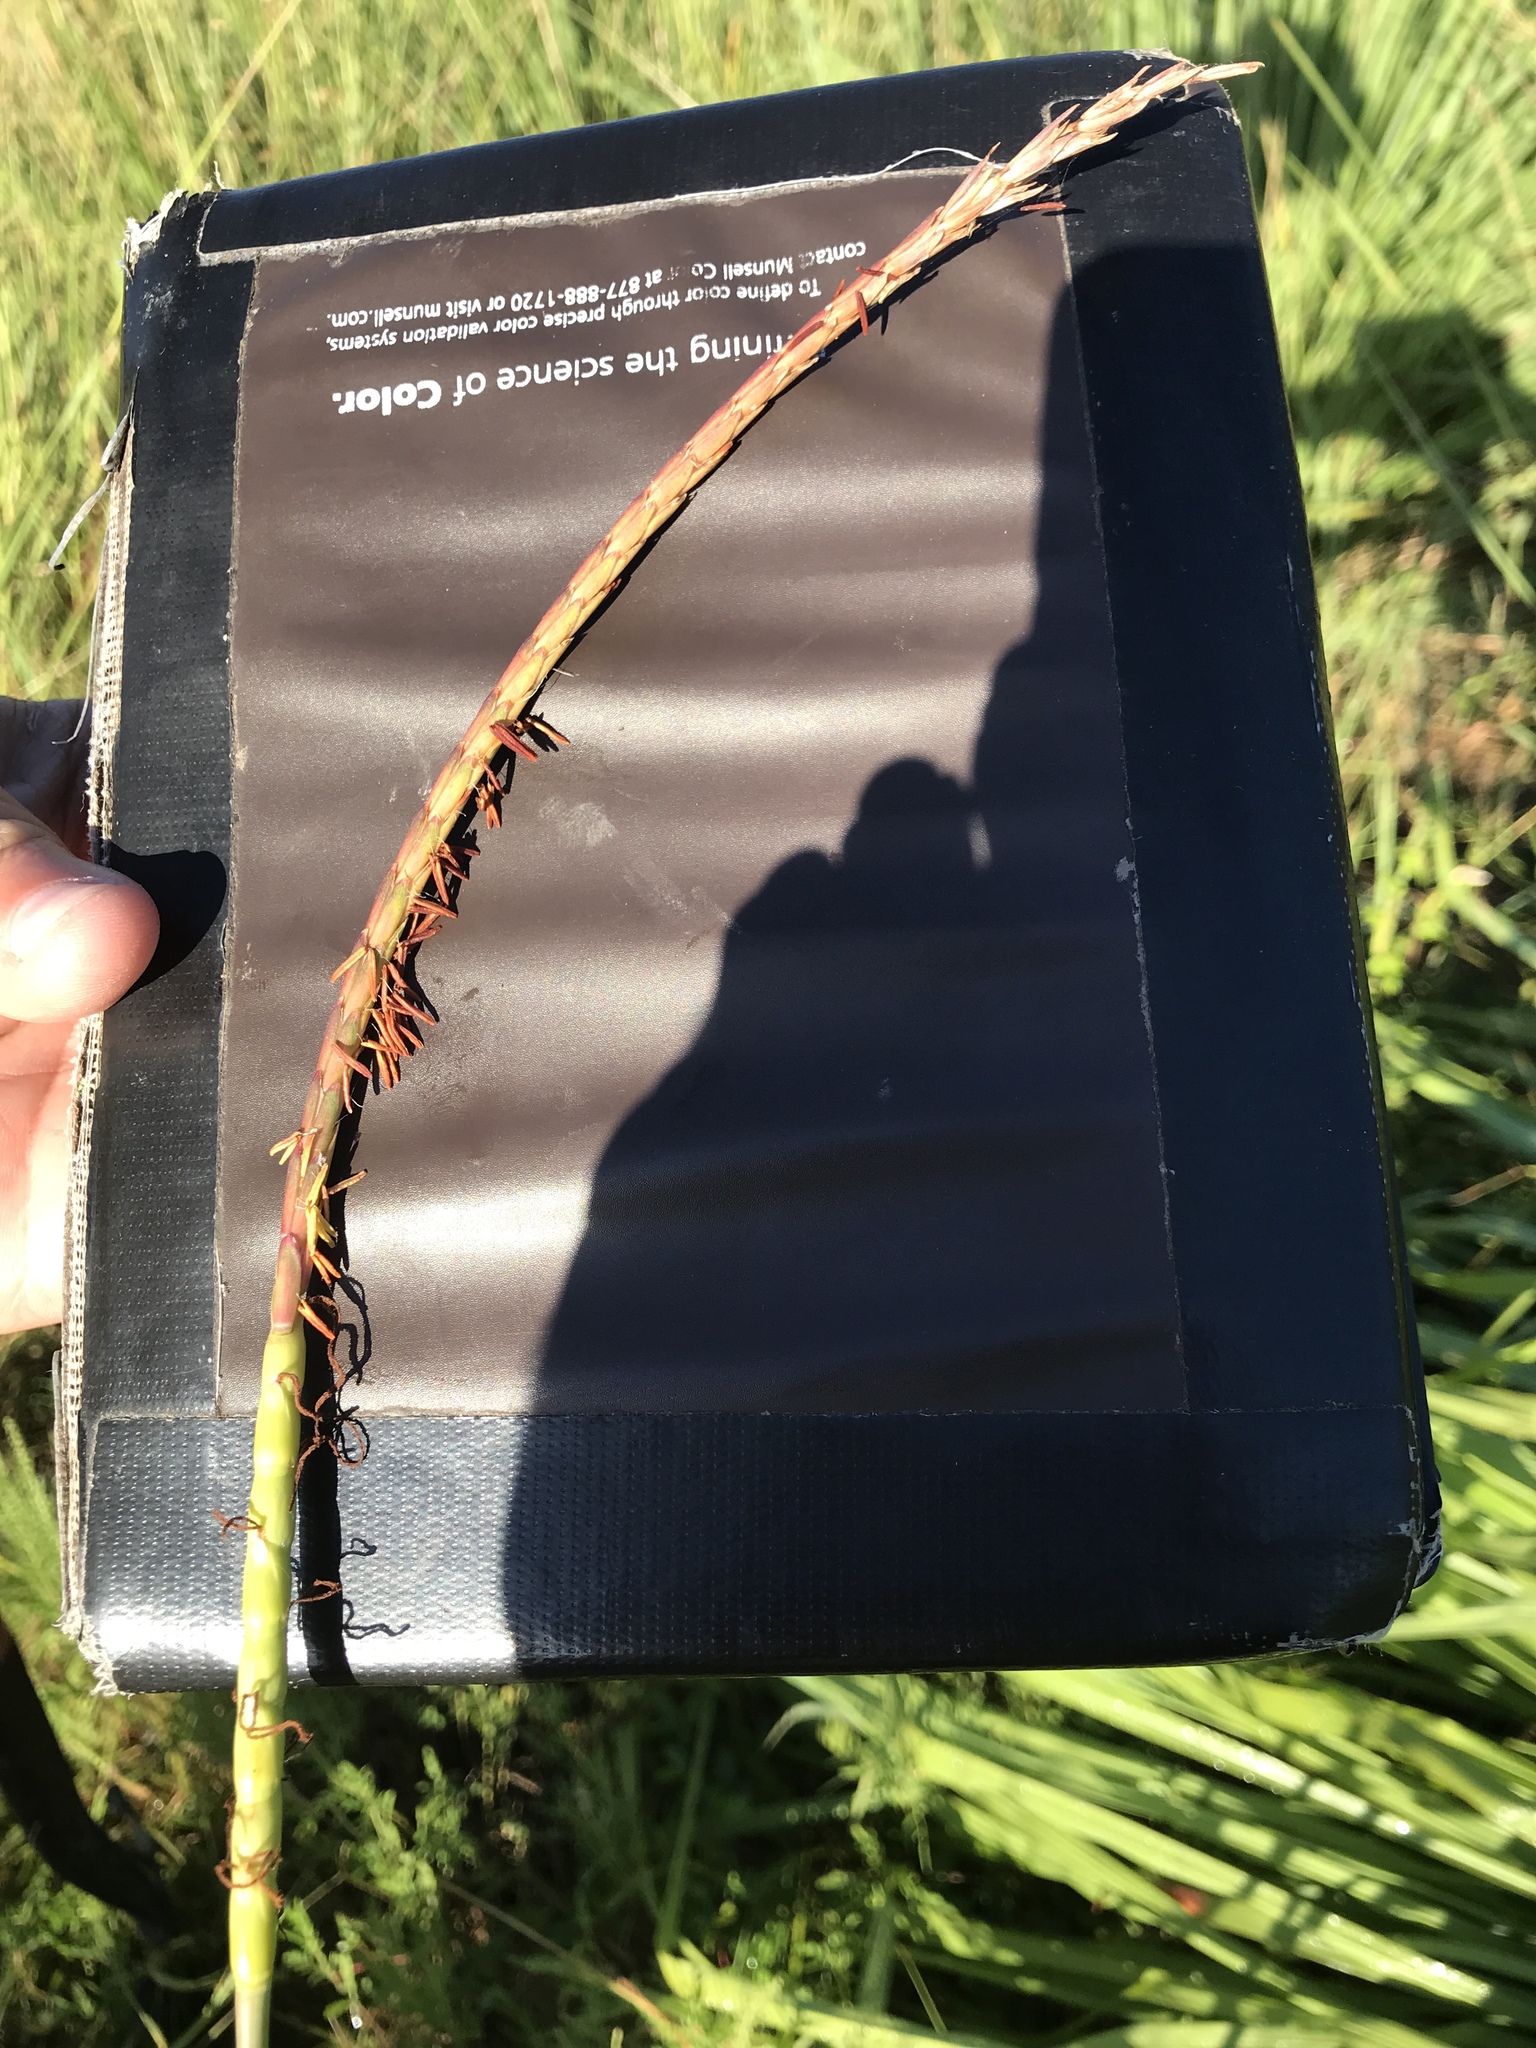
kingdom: Plantae
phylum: Tracheophyta
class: Liliopsida
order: Poales
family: Poaceae
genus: Tripsacum
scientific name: Tripsacum dactyloides
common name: Buffalo-grass
